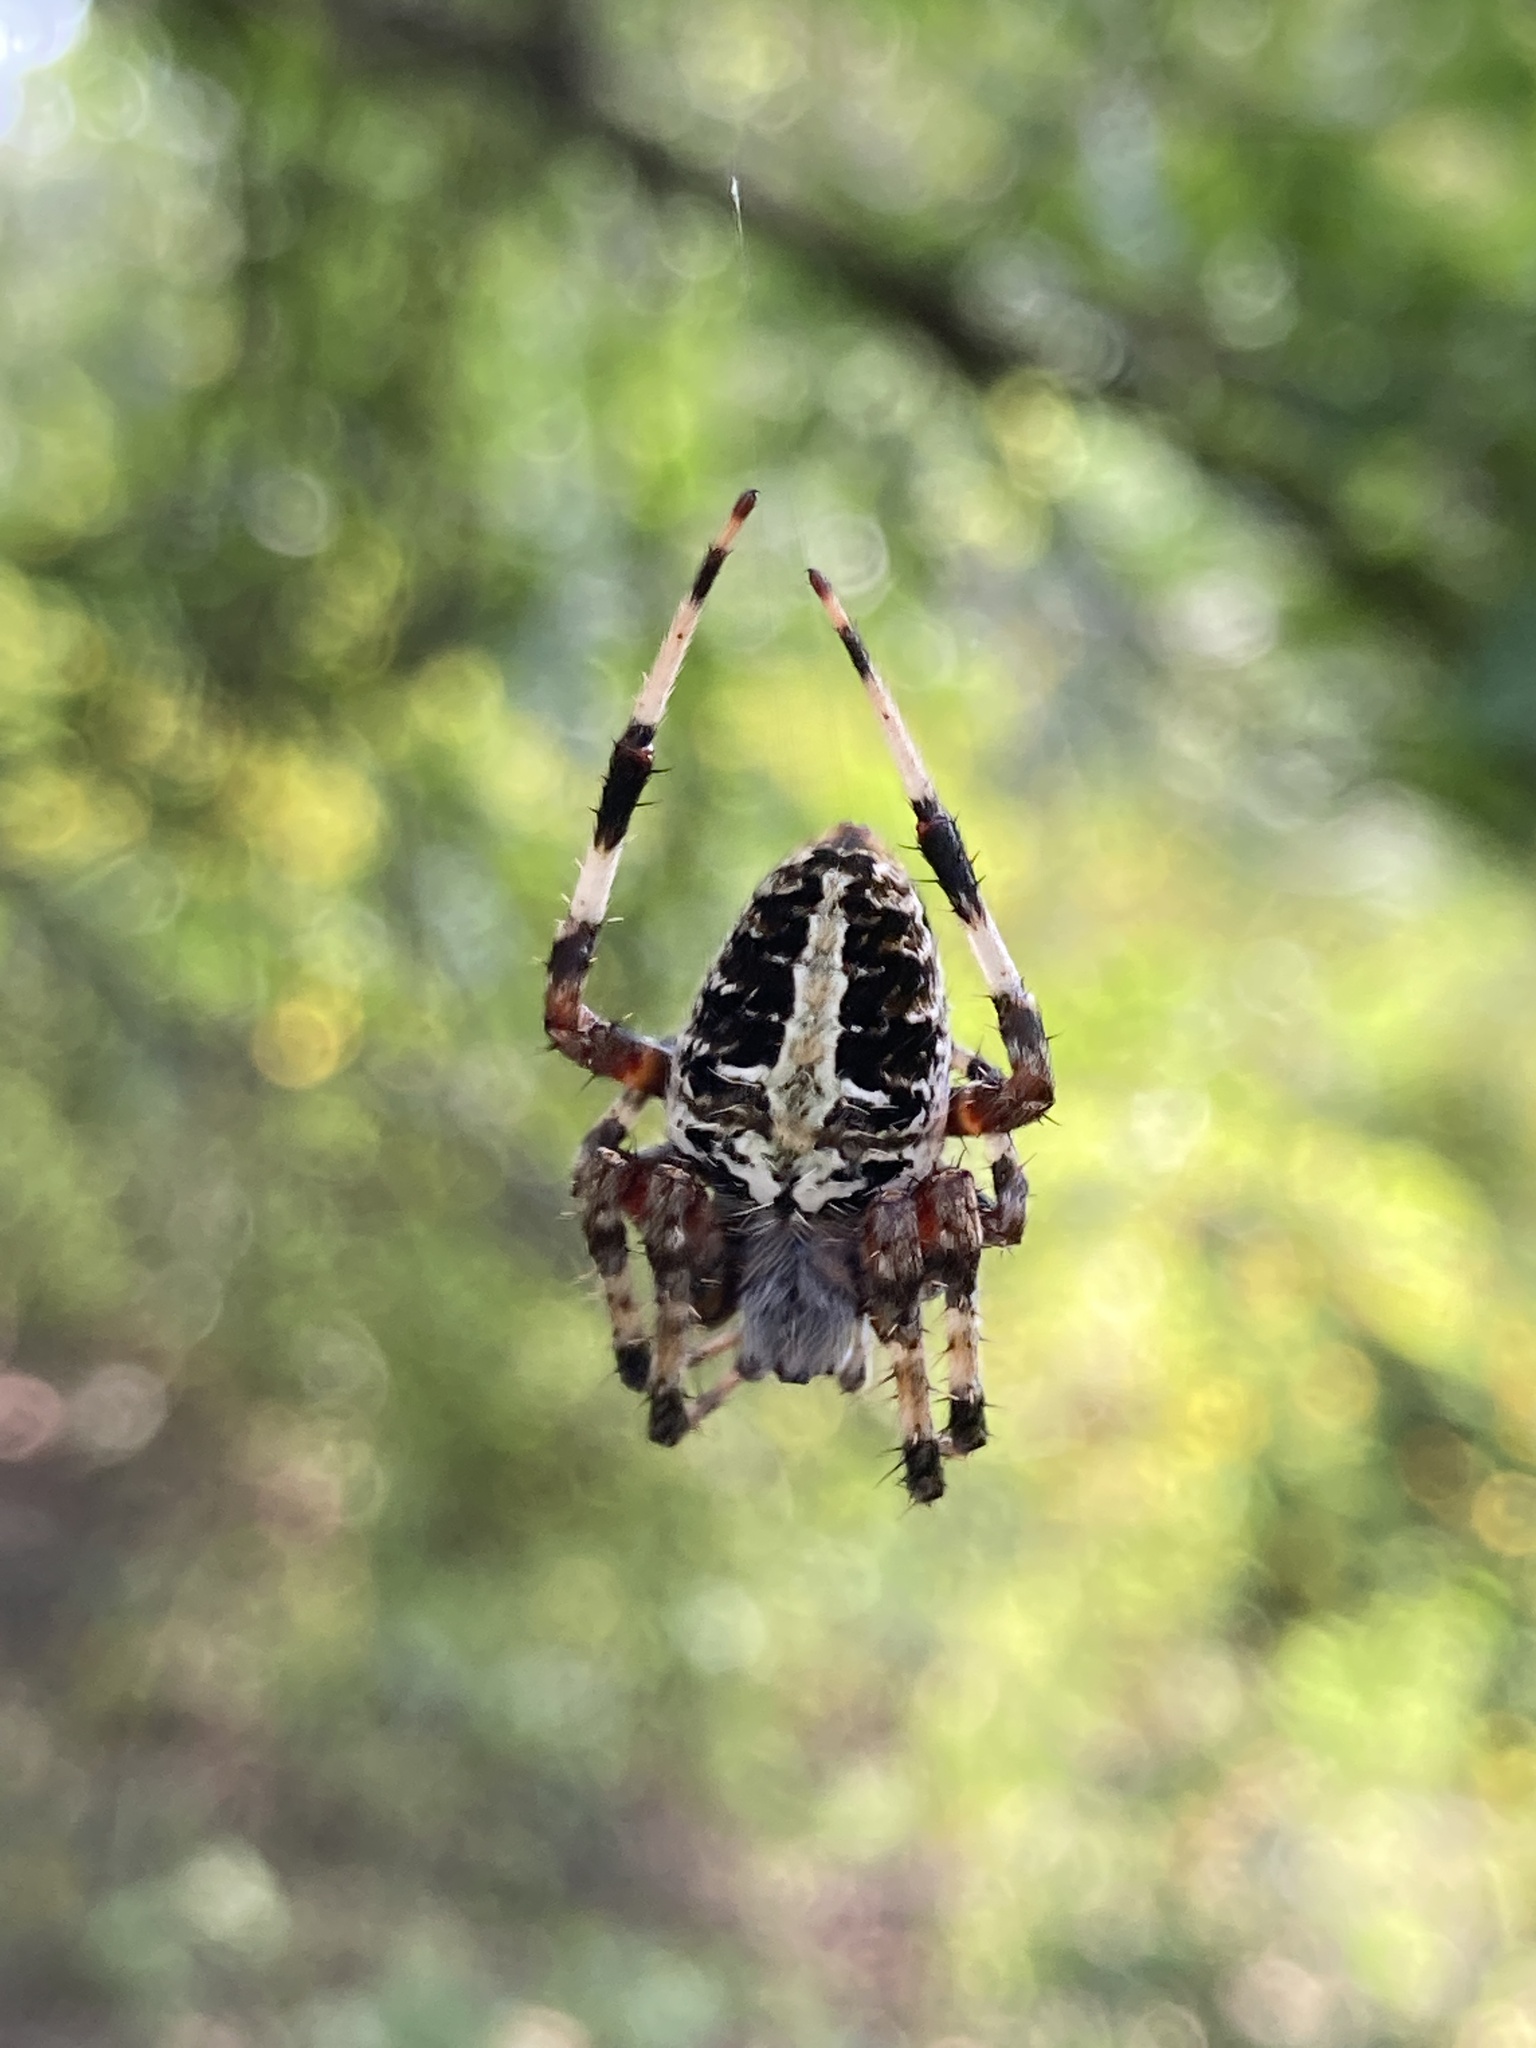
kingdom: Animalia
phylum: Arthropoda
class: Arachnida
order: Araneae
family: Araneidae
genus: Neoscona
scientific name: Neoscona domiciliorum
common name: Red-femured spotted orbweaver
